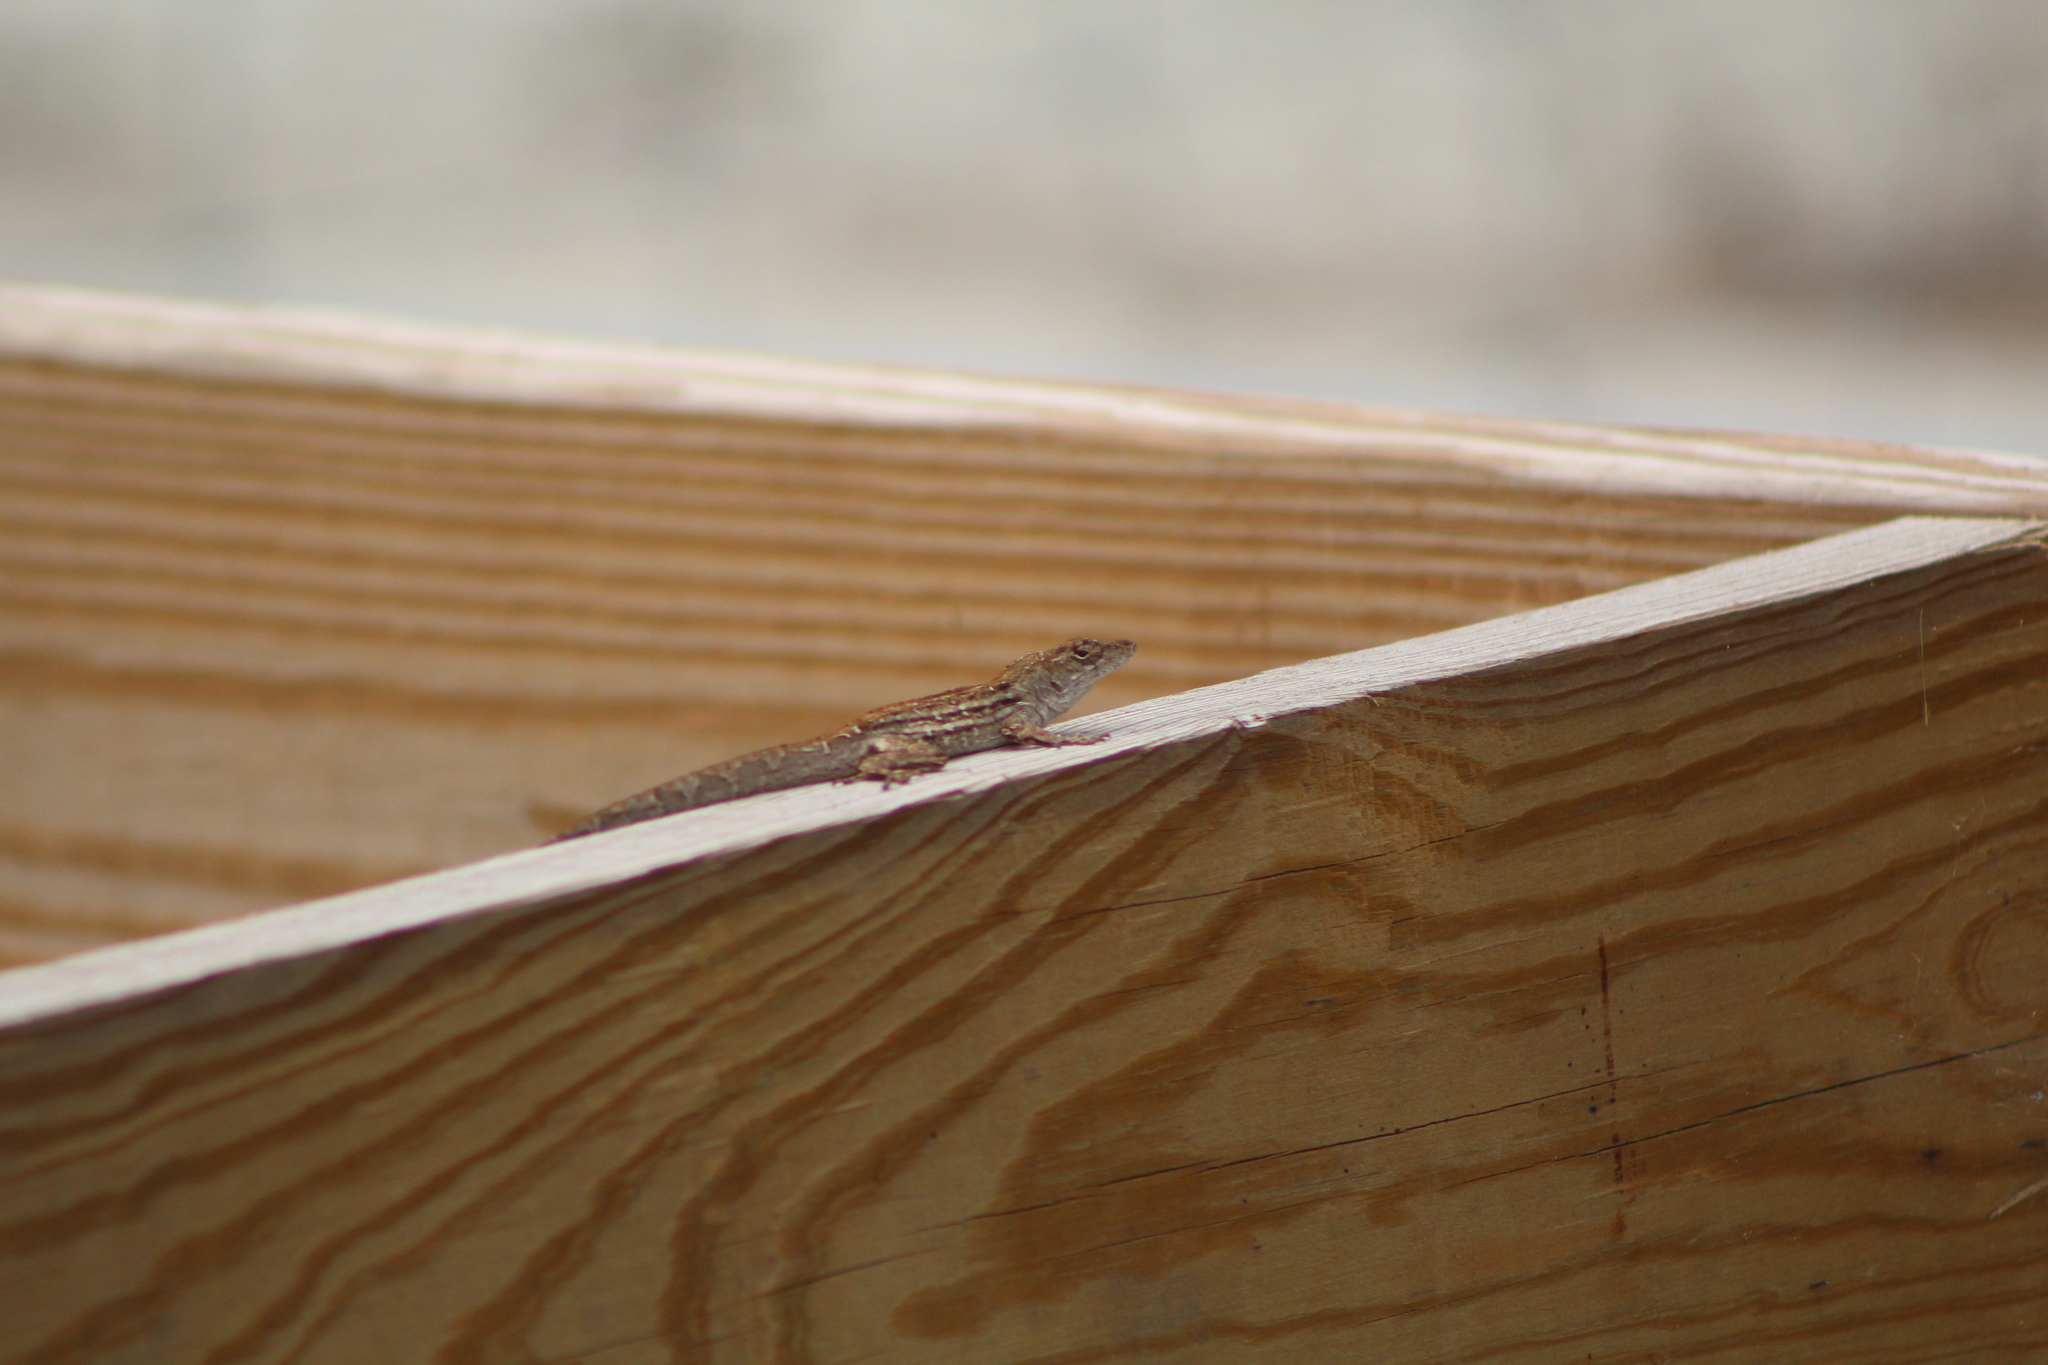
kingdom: Animalia
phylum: Chordata
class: Squamata
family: Dactyloidae
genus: Anolis
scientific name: Anolis sagrei
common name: Brown anole
